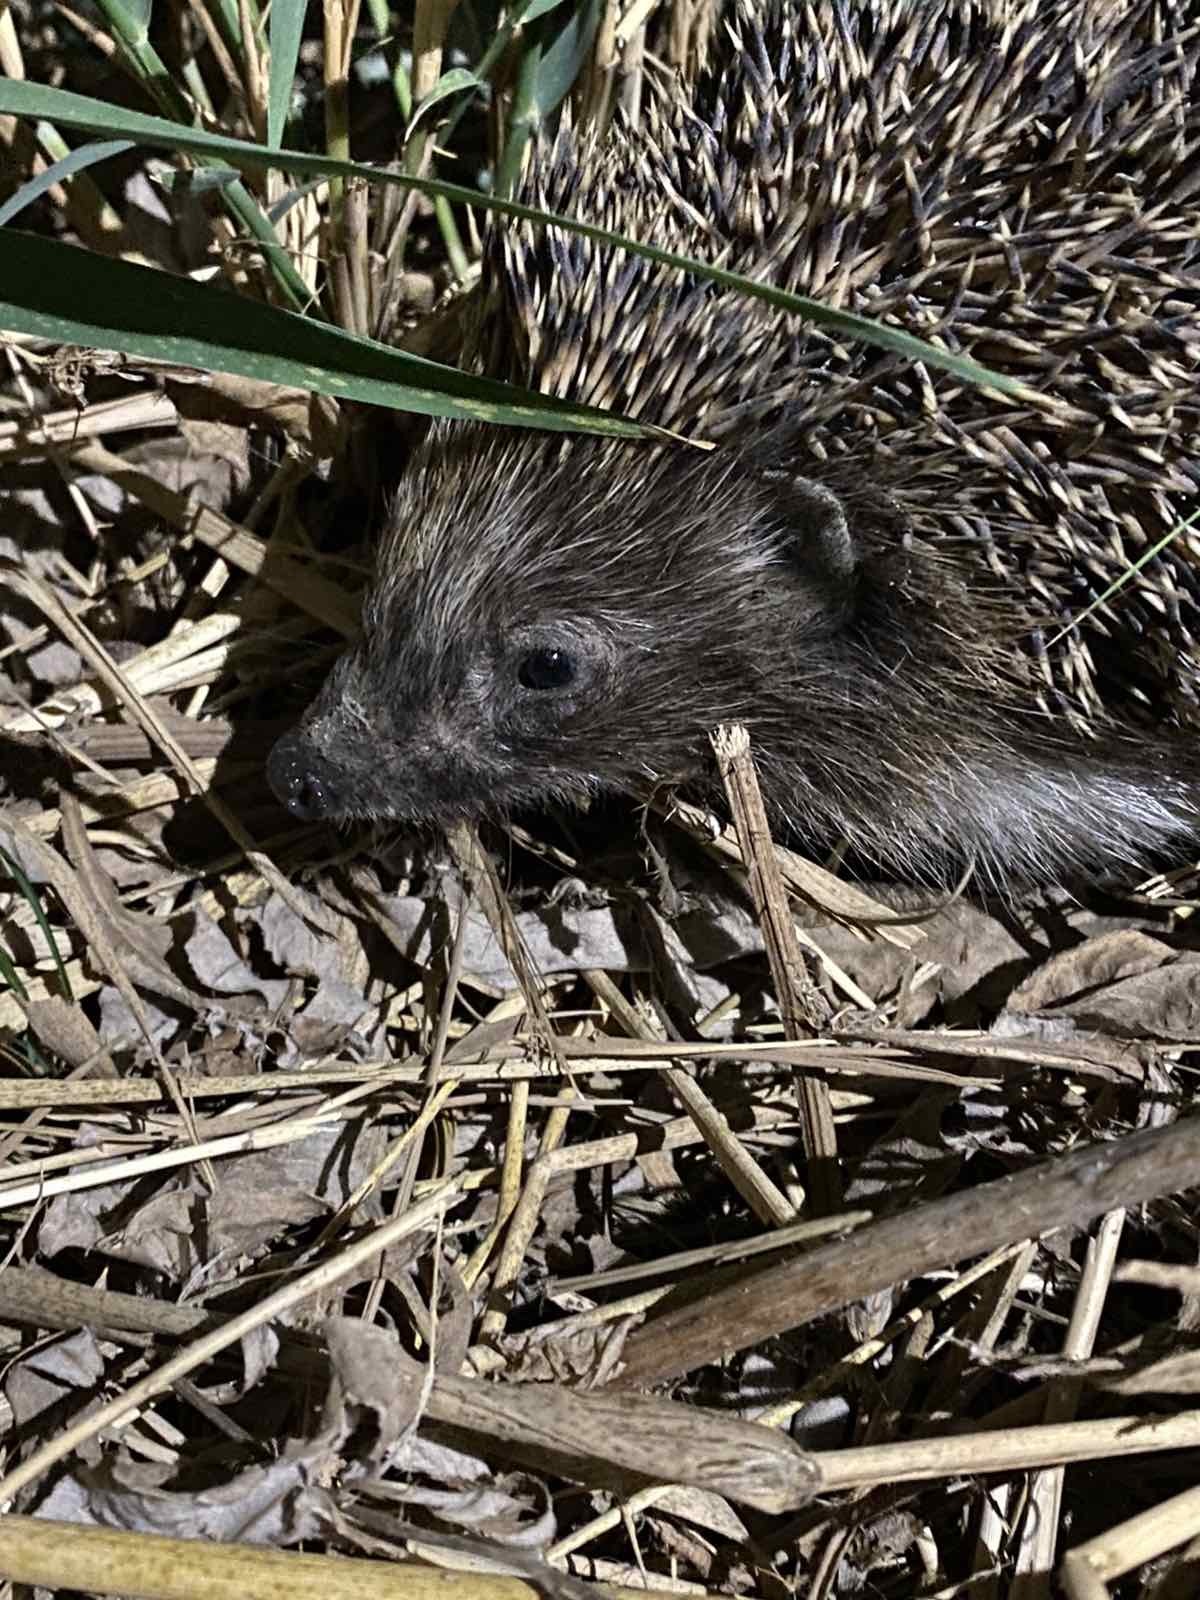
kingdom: Animalia
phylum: Chordata
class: Mammalia
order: Erinaceomorpha
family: Erinaceidae
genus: Erinaceus
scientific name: Erinaceus roumanicus
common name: Northern white-breasted hedgehog
